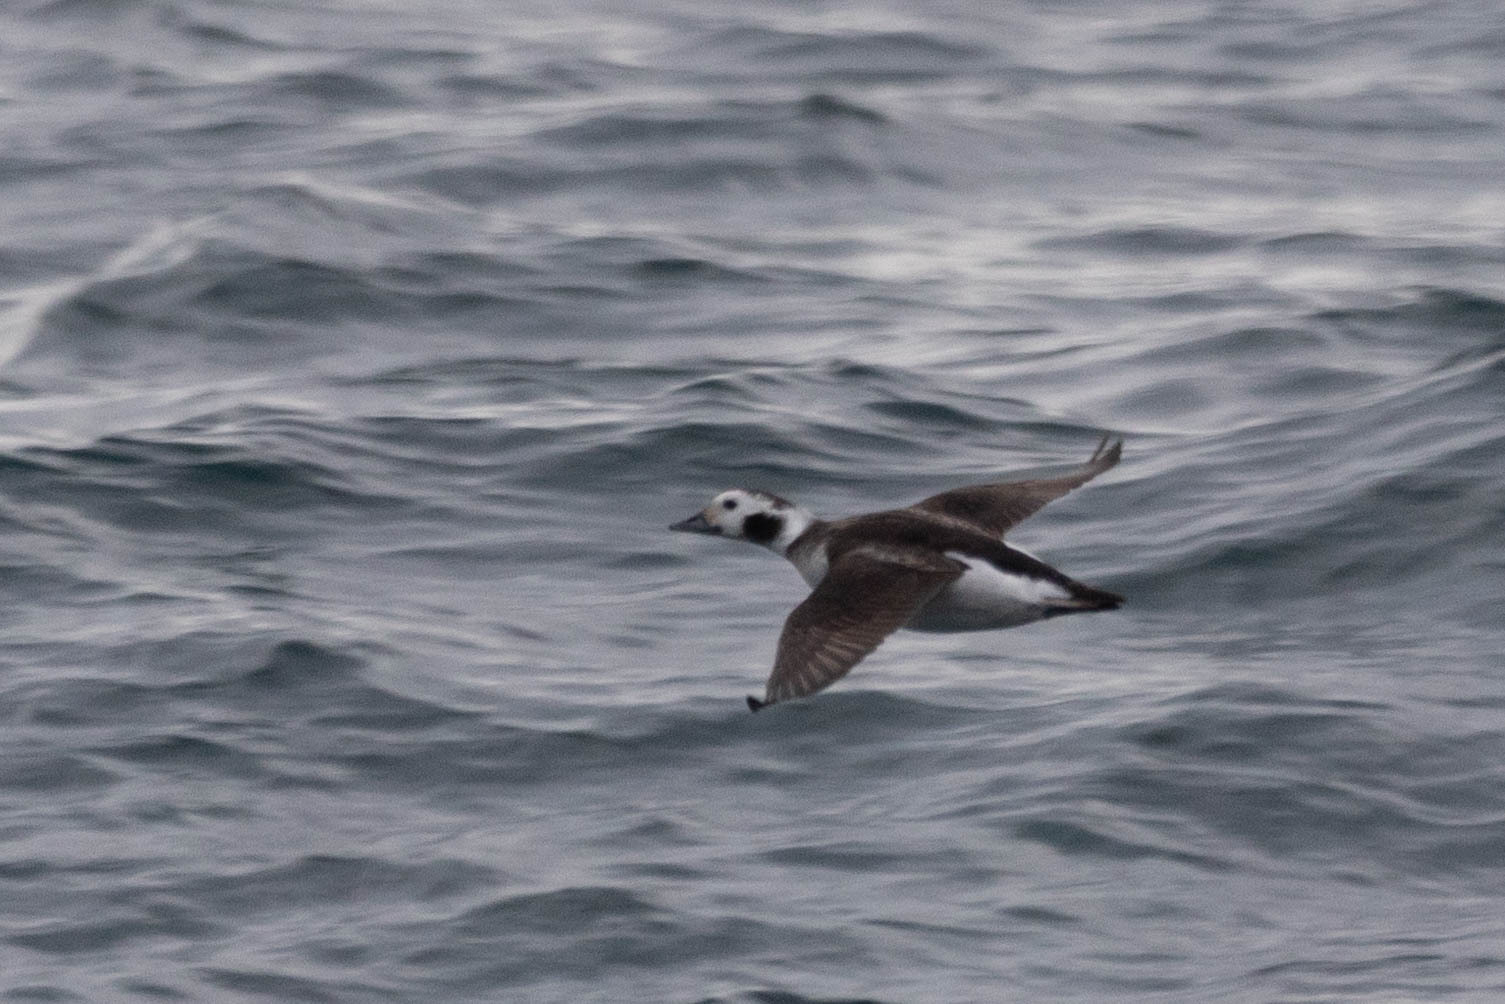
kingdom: Animalia
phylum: Chordata
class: Aves
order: Anseriformes
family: Anatidae
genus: Clangula
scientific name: Clangula hyemalis
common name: Long-tailed duck
